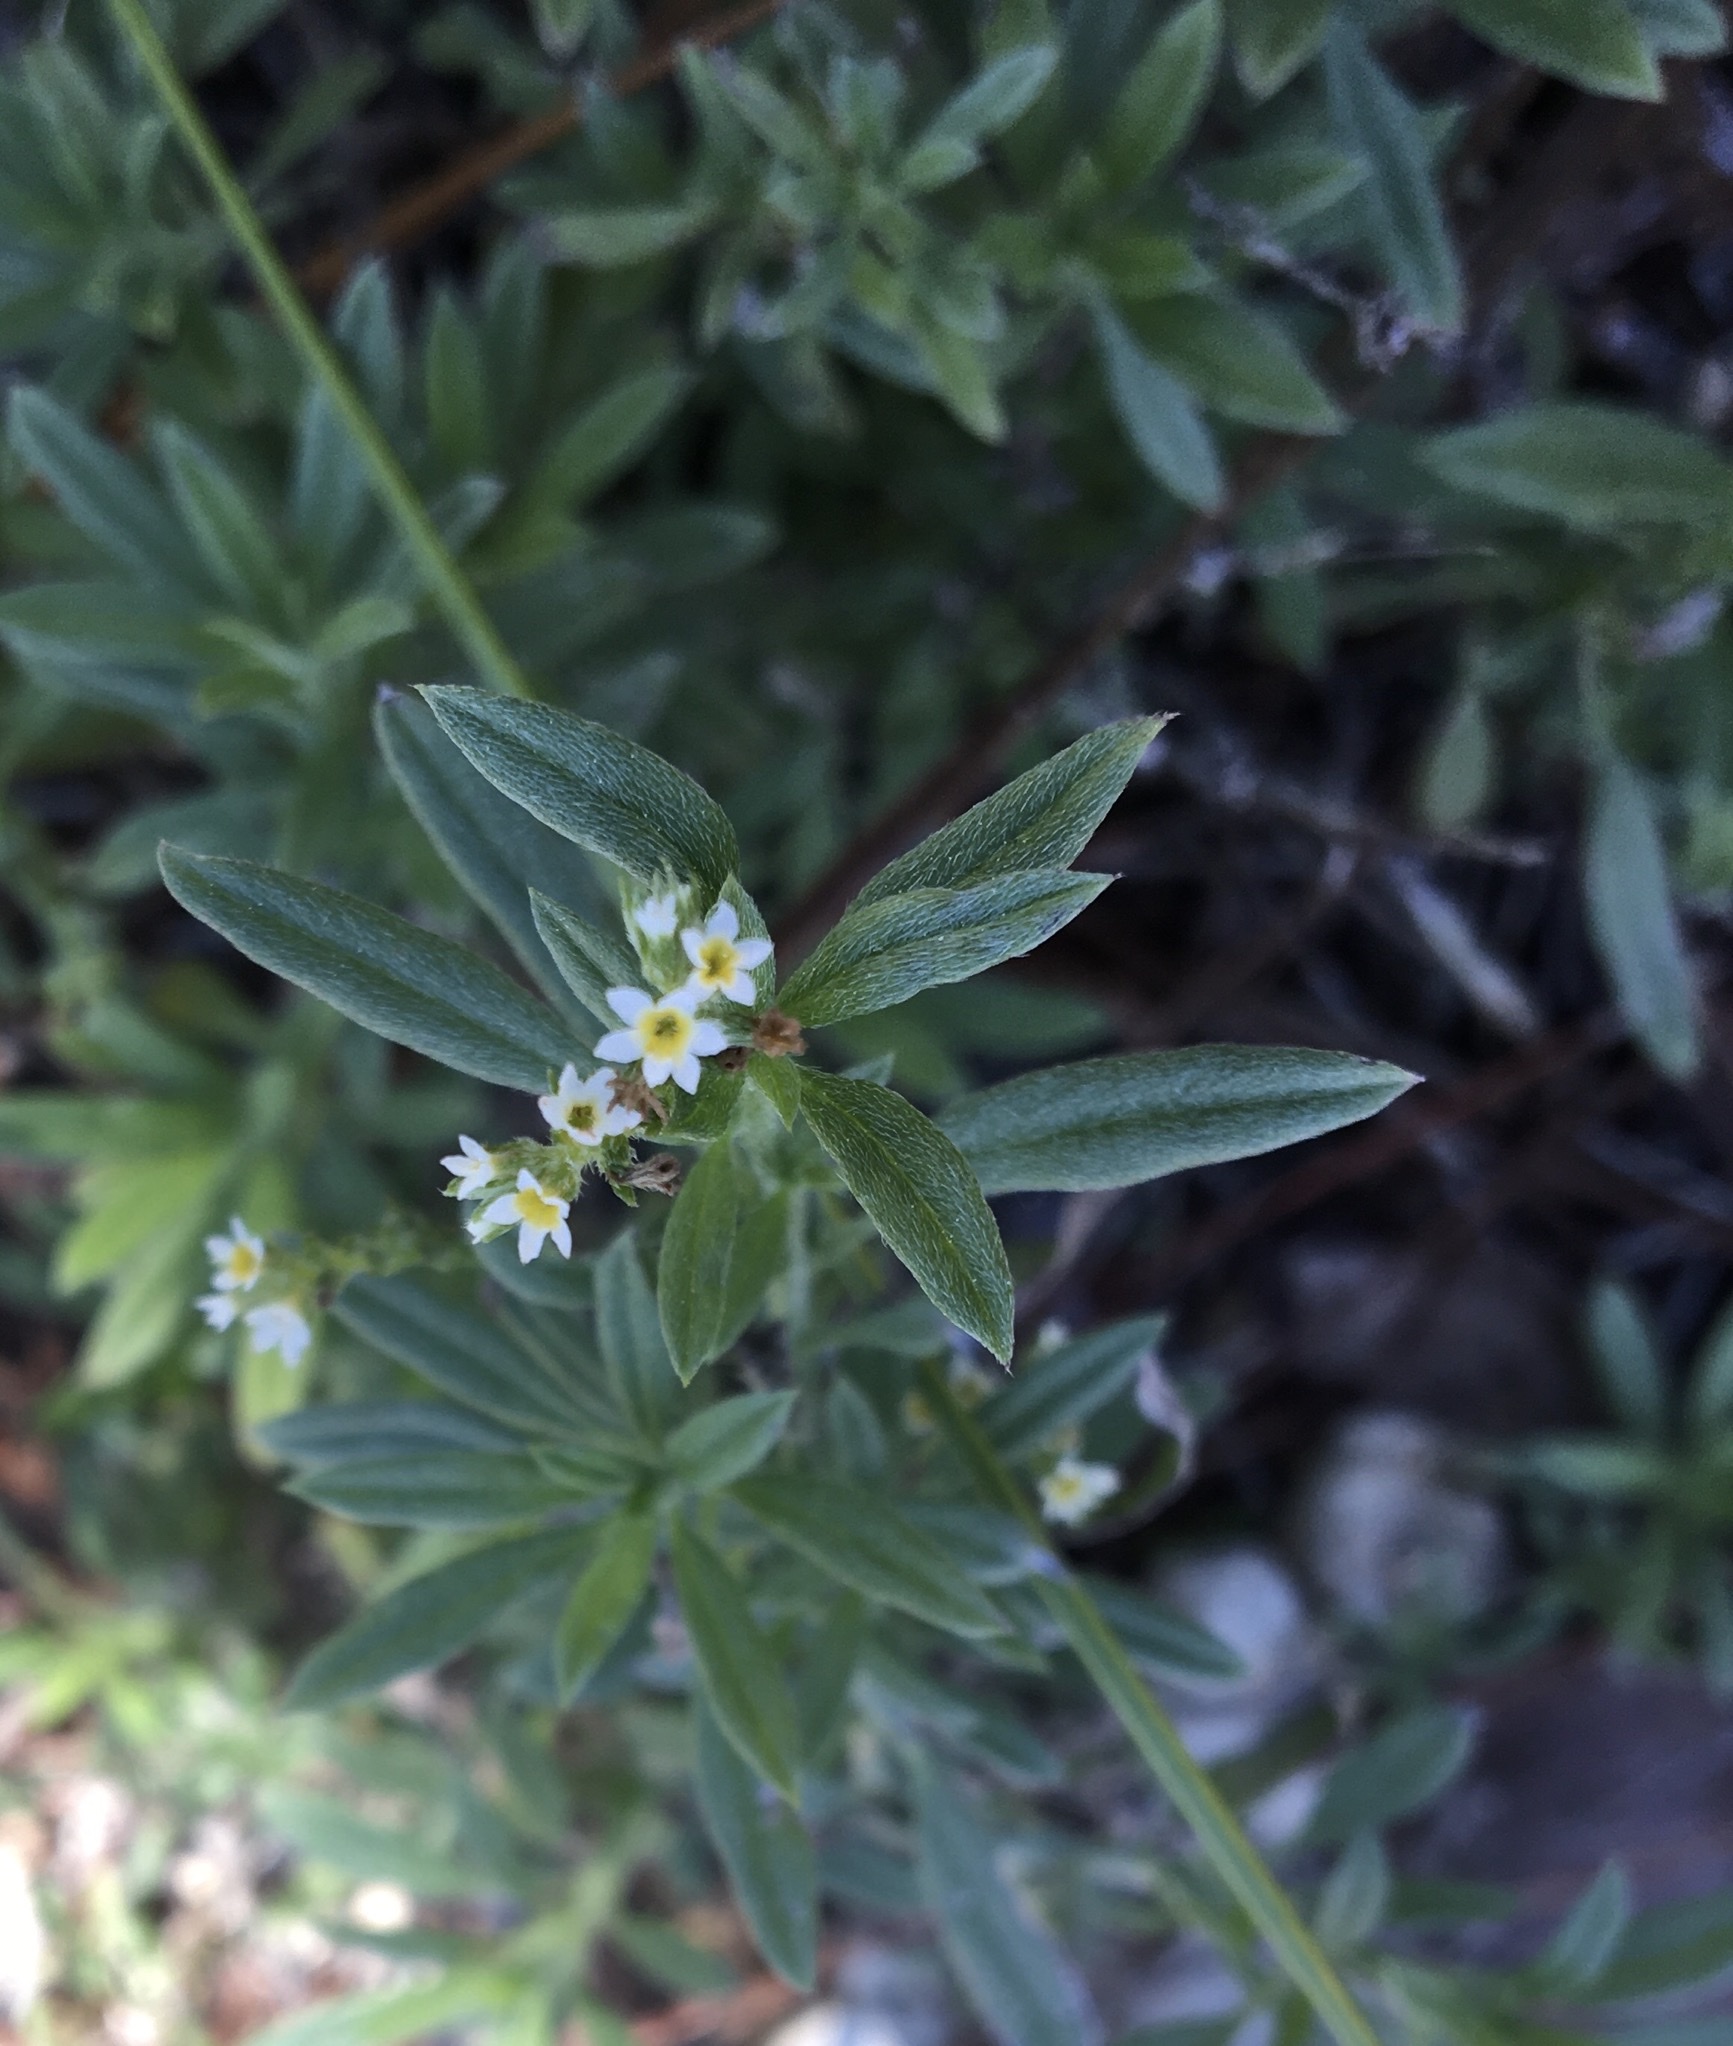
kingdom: Plantae
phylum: Tracheophyta
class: Magnoliopsida
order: Boraginales
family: Heliotropiaceae
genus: Euploca
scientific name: Euploca procumbens
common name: Fourspike heliotrope
